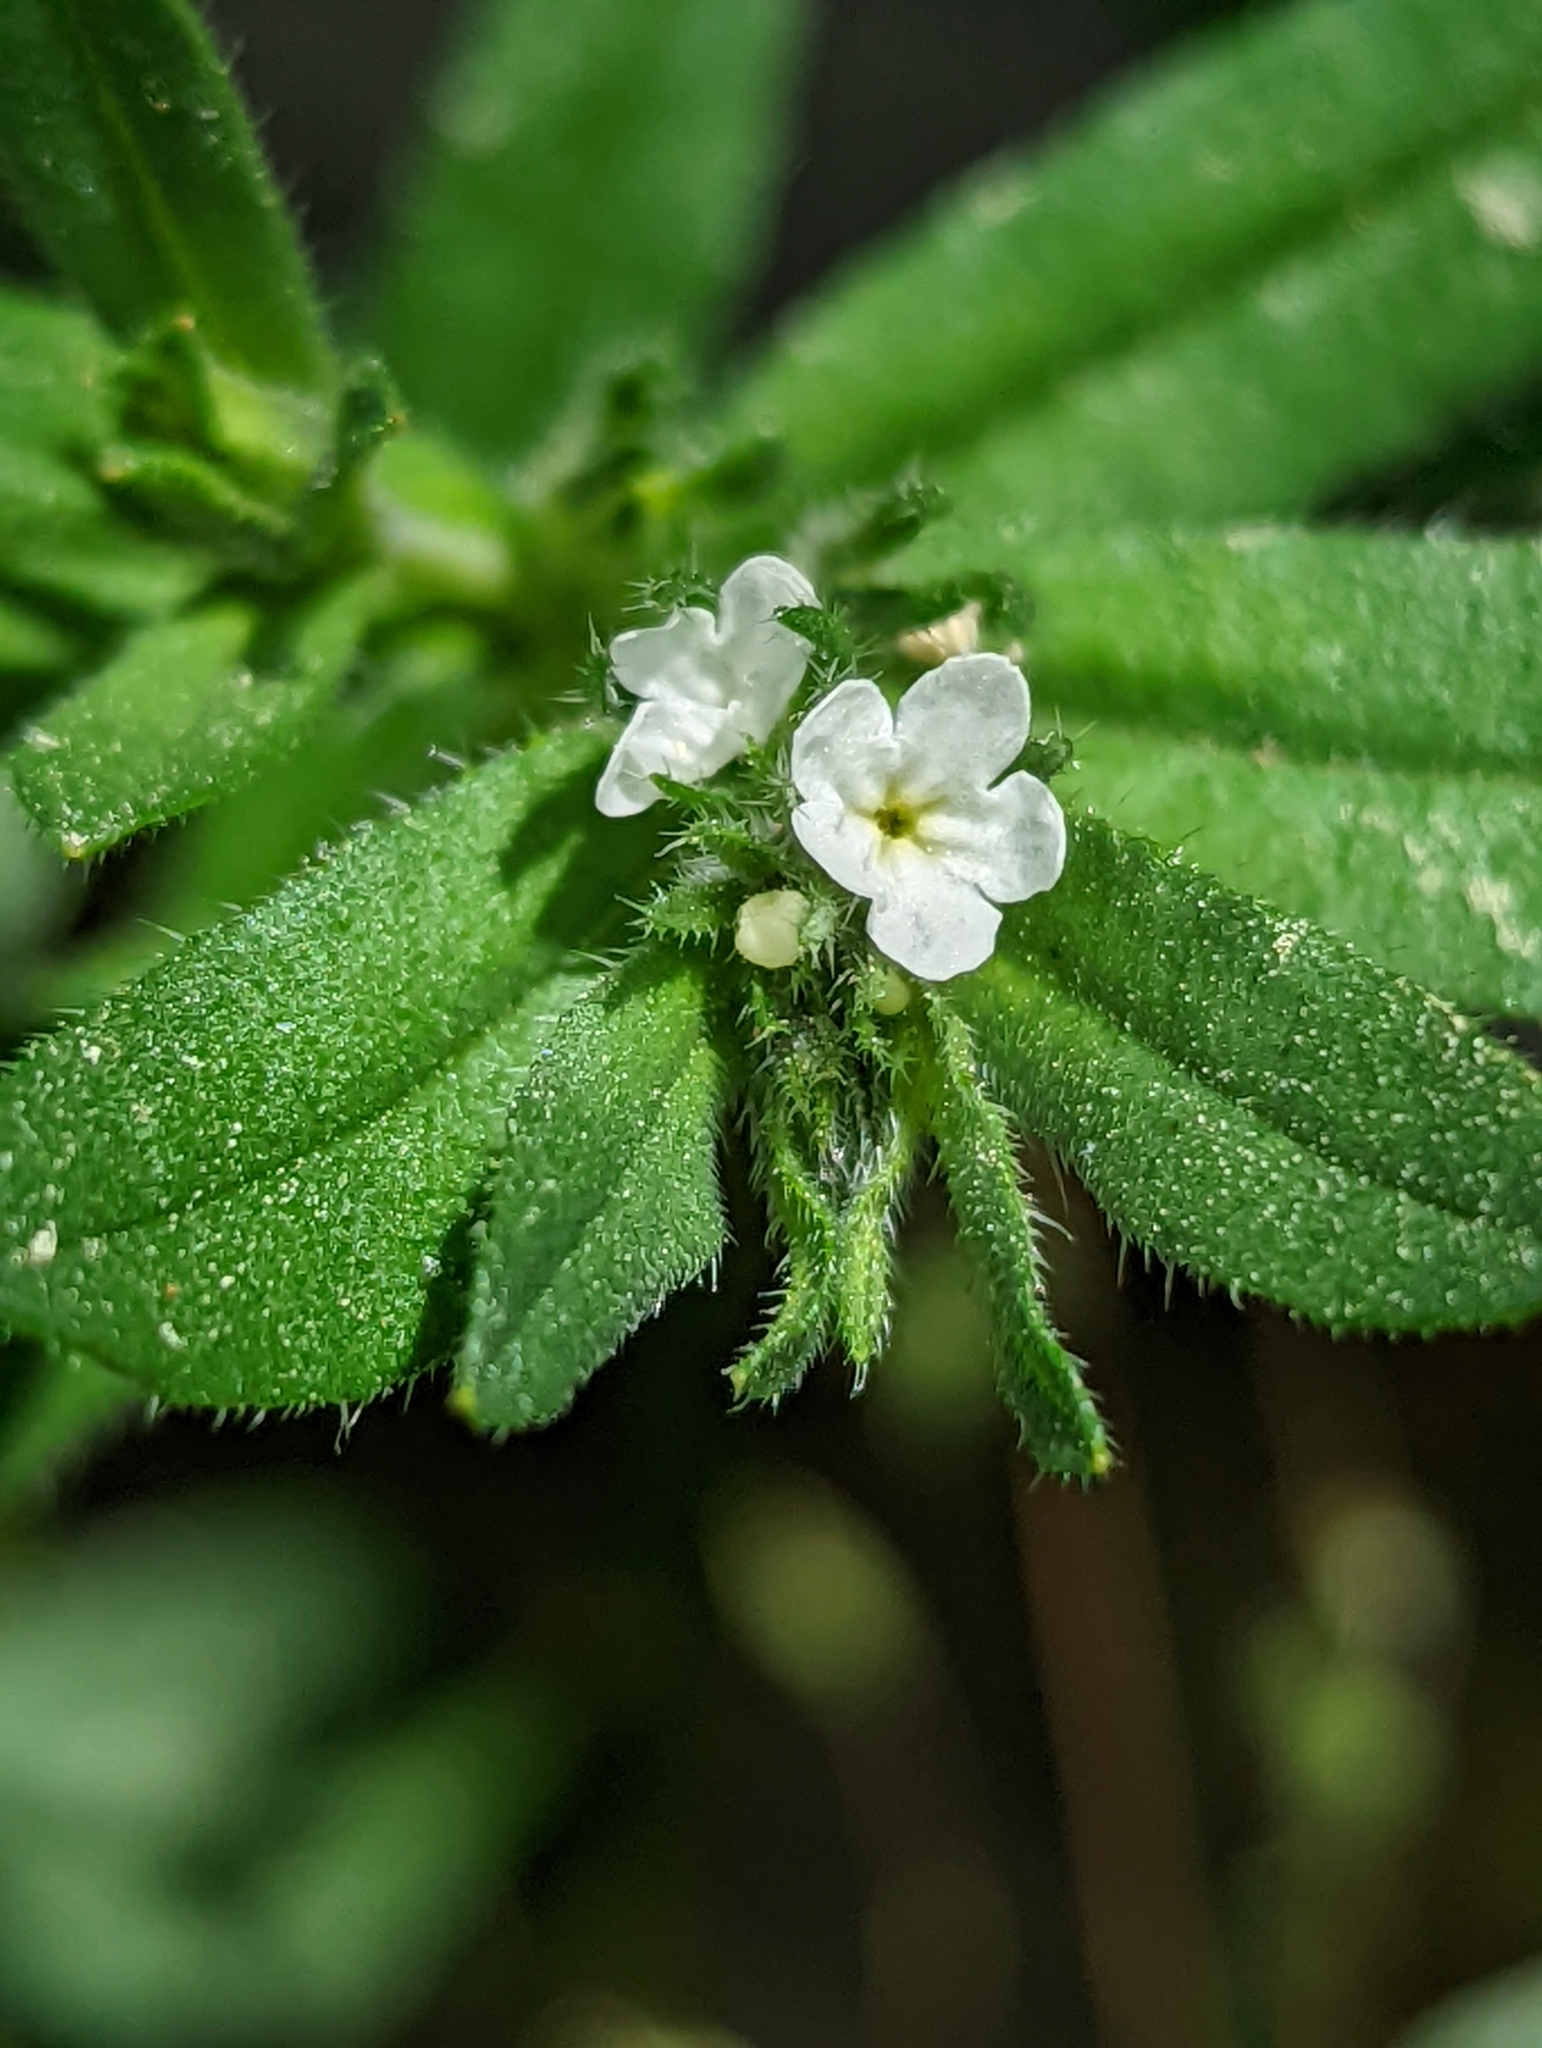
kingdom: Plantae
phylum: Tracheophyta
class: Magnoliopsida
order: Boraginales
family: Boraginaceae
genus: Buglossoides
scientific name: Buglossoides arvensis
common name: Corn gromwell
